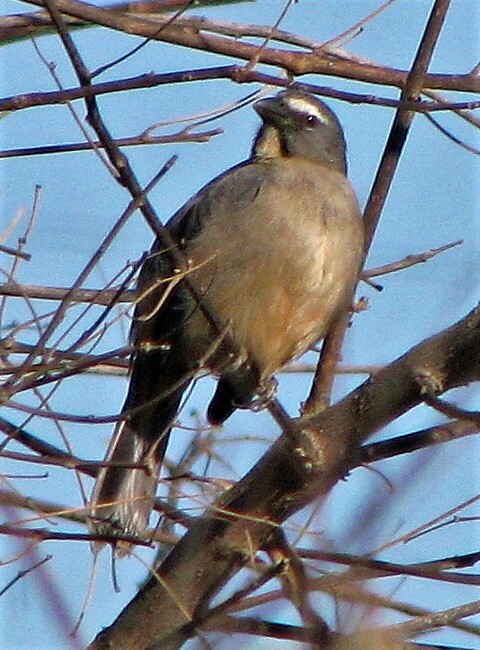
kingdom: Animalia
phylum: Chordata
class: Aves
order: Passeriformes
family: Thraupidae
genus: Saltator
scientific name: Saltator coerulescens
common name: Grayish saltator
